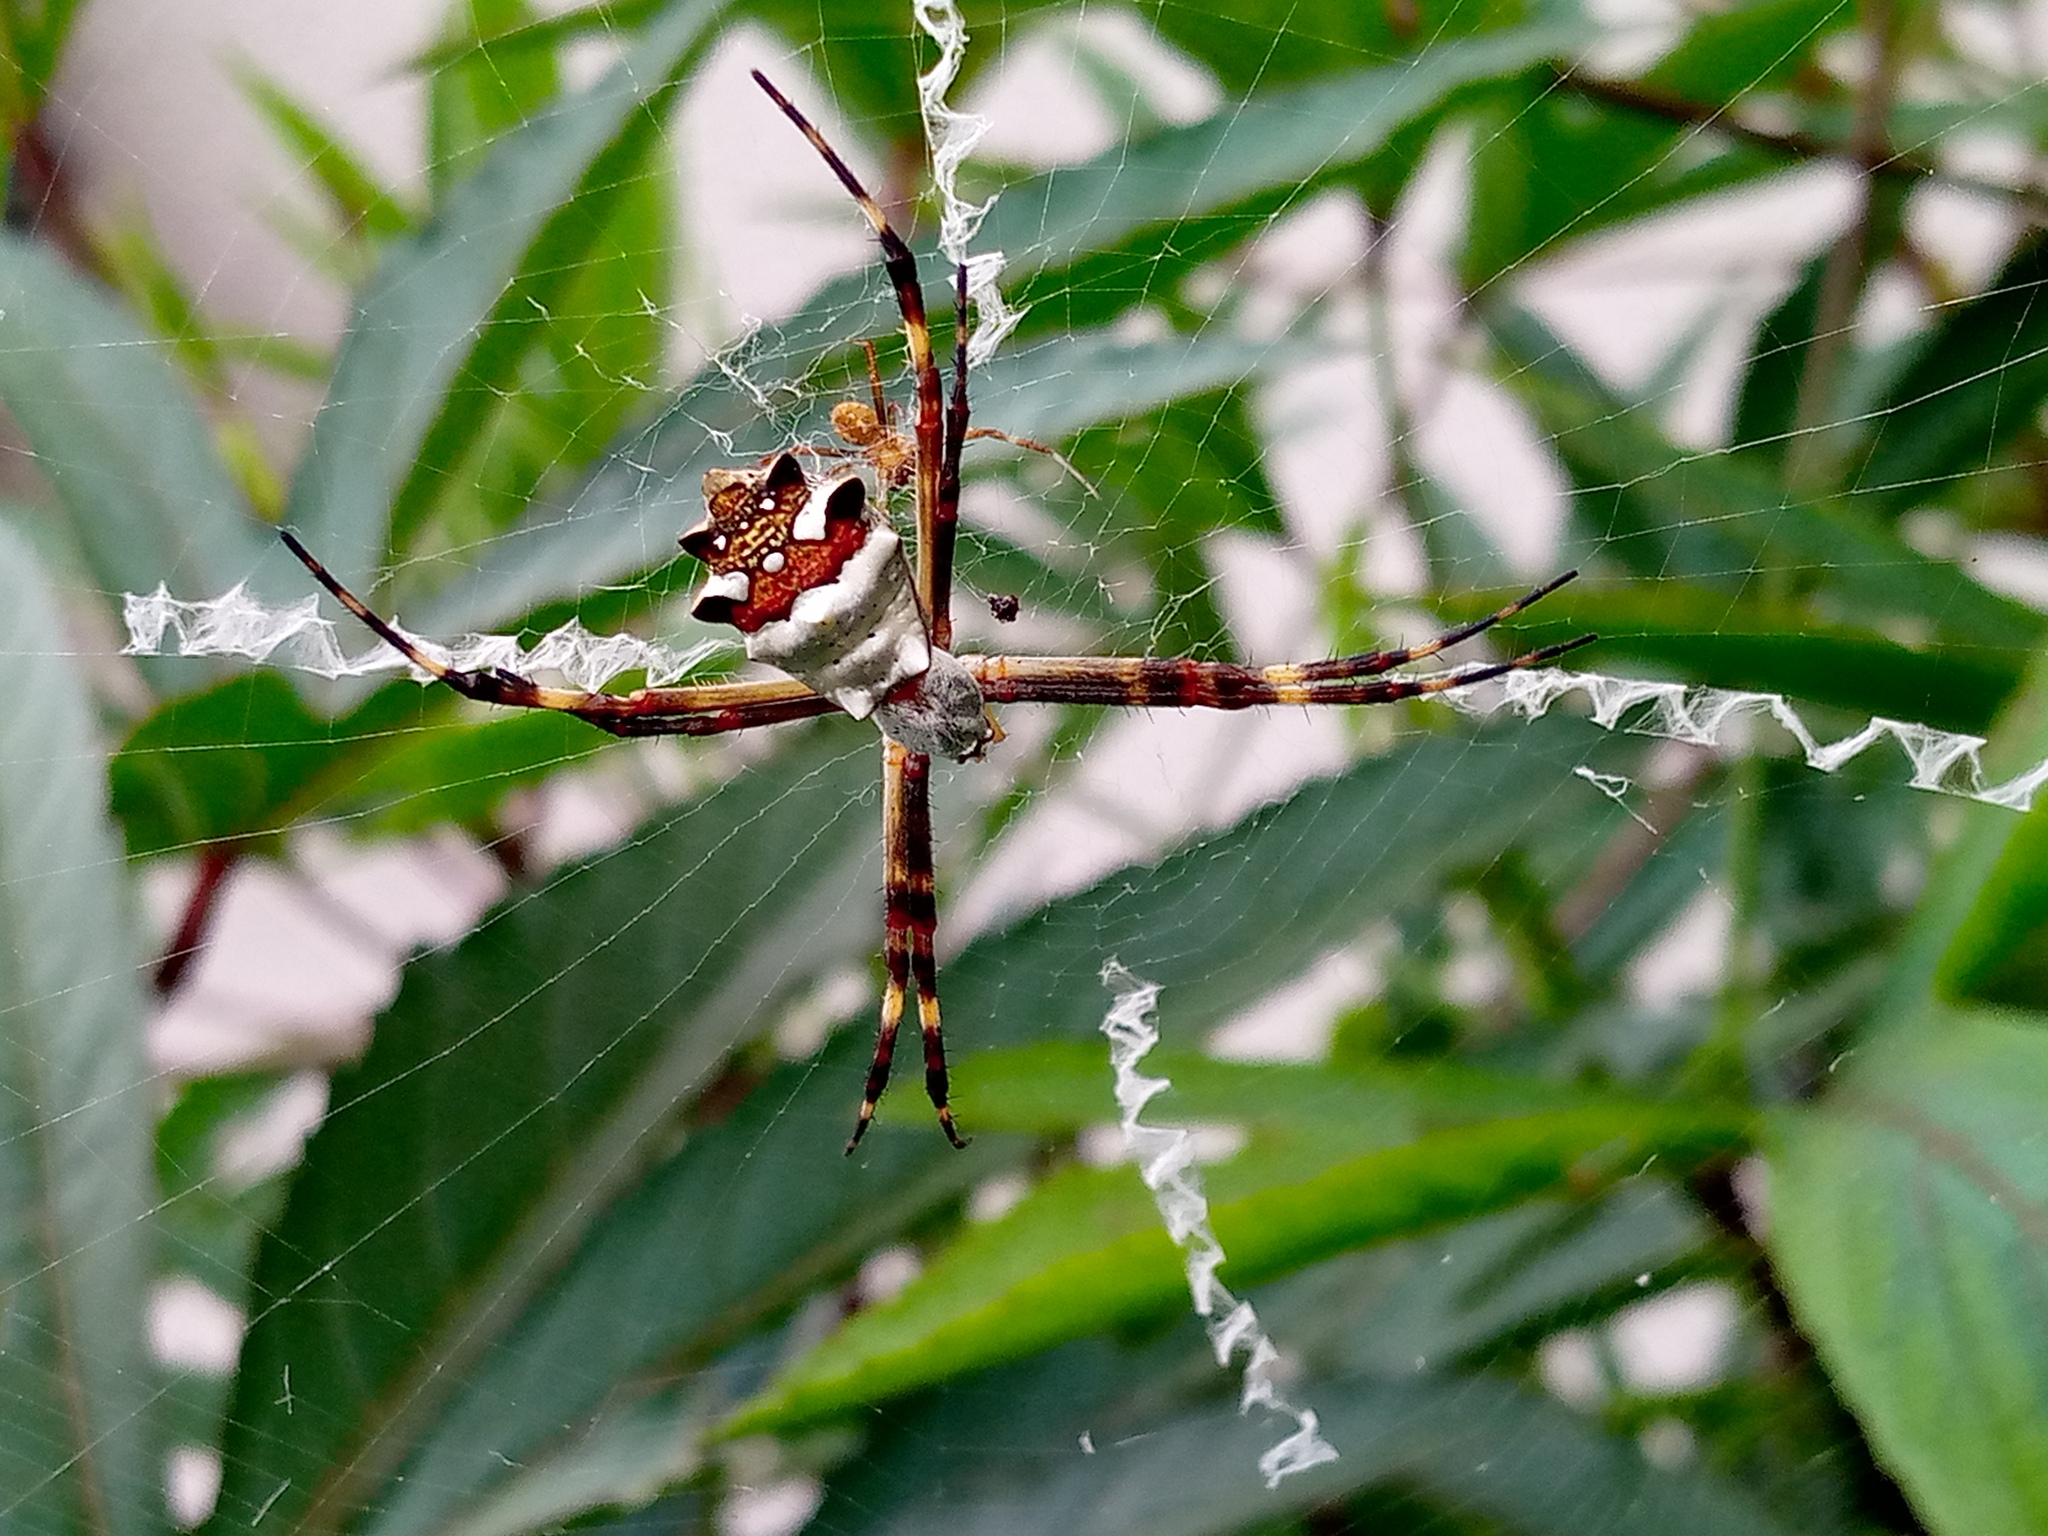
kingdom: Animalia
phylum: Arthropoda
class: Arachnida
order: Araneae
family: Araneidae
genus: Argiope
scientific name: Argiope argentata
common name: Orb weavers
